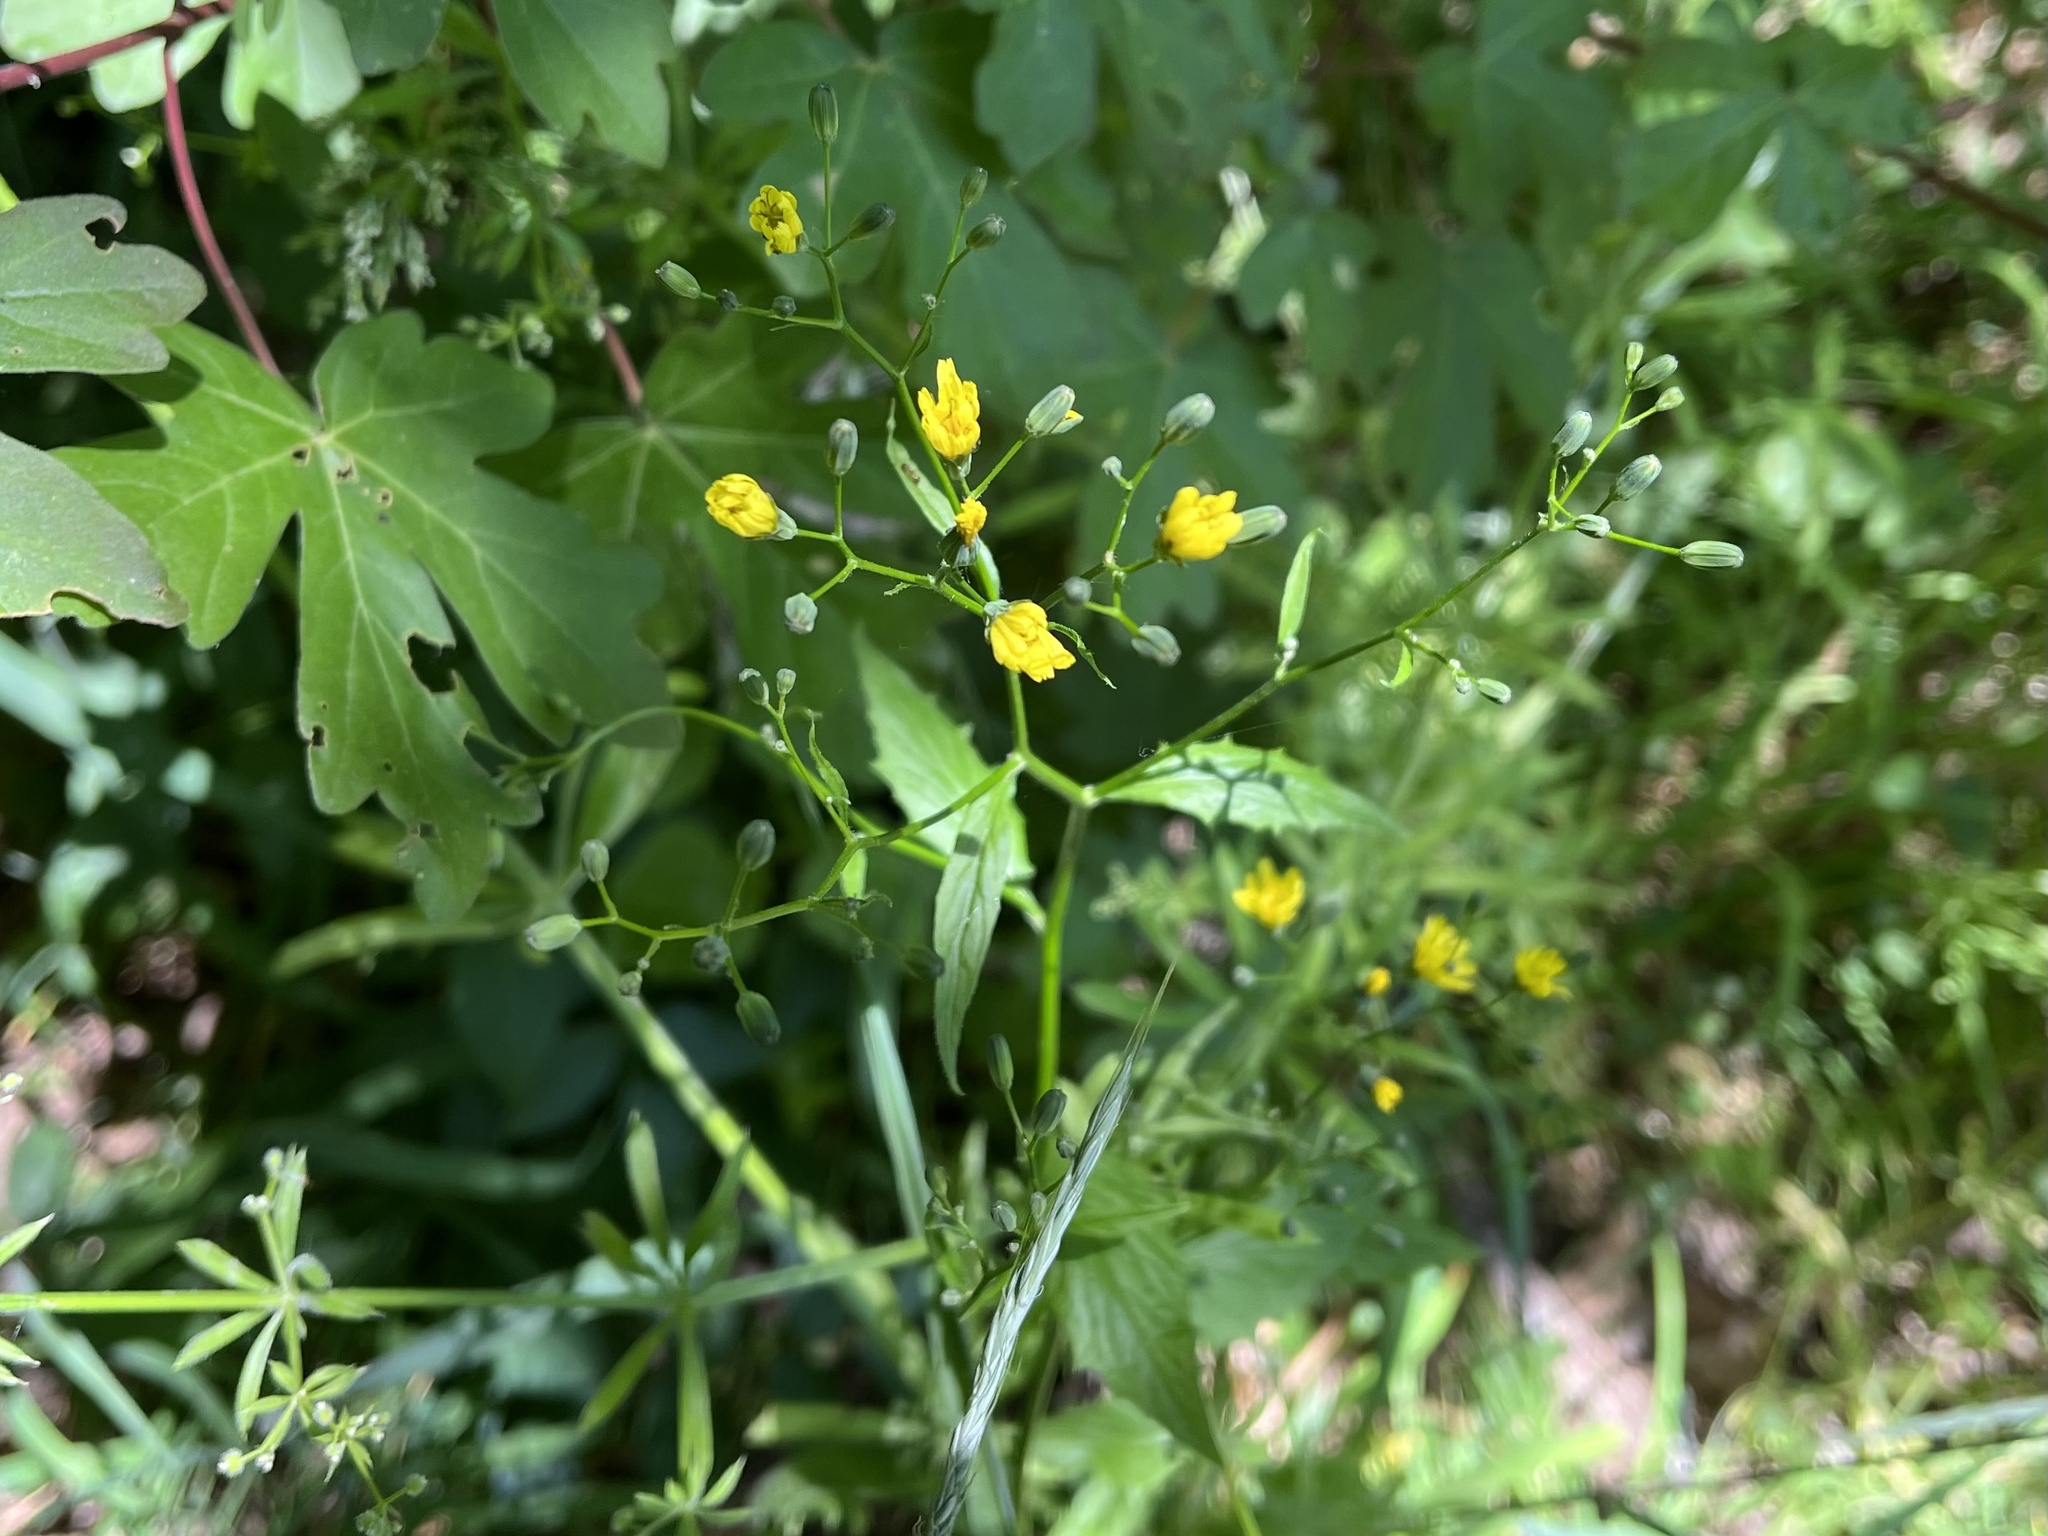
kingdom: Plantae
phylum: Tracheophyta
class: Magnoliopsida
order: Asterales
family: Asteraceae
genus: Lapsana
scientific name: Lapsana communis
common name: Nipplewort
